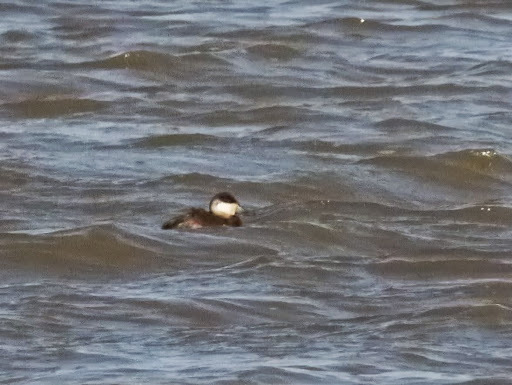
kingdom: Animalia
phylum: Chordata
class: Aves
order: Anseriformes
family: Anatidae
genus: Oxyura
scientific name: Oxyura jamaicensis
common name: Ruddy duck
